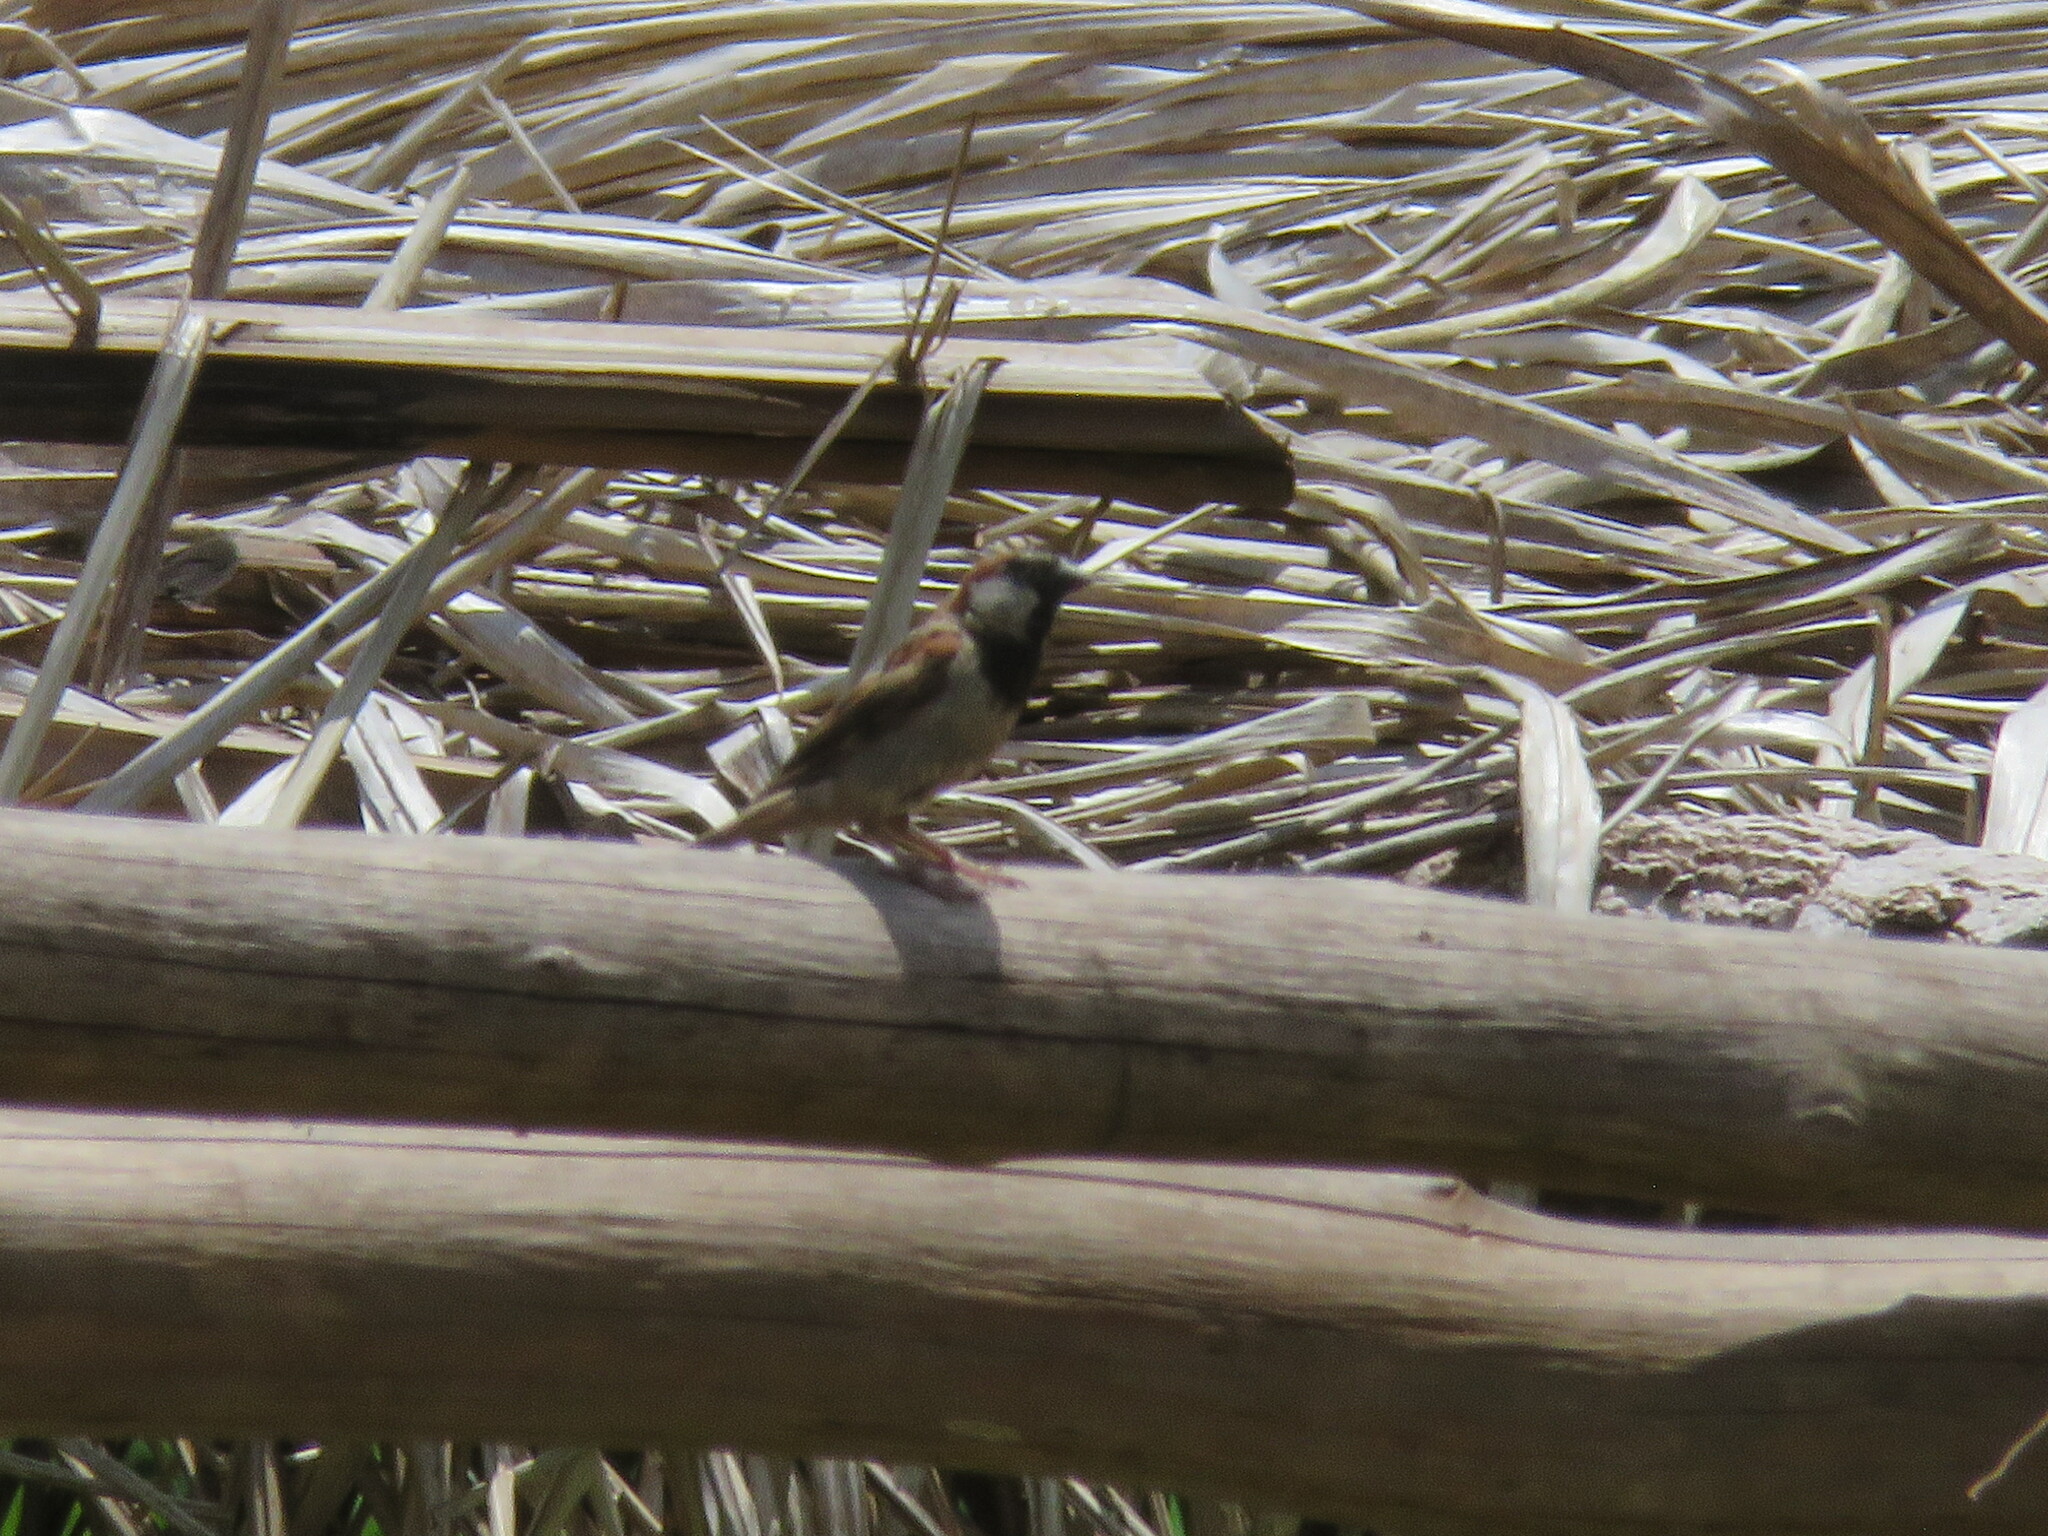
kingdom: Animalia
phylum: Chordata
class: Aves
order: Passeriformes
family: Passeridae
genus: Passer
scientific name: Passer domesticus
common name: House sparrow
